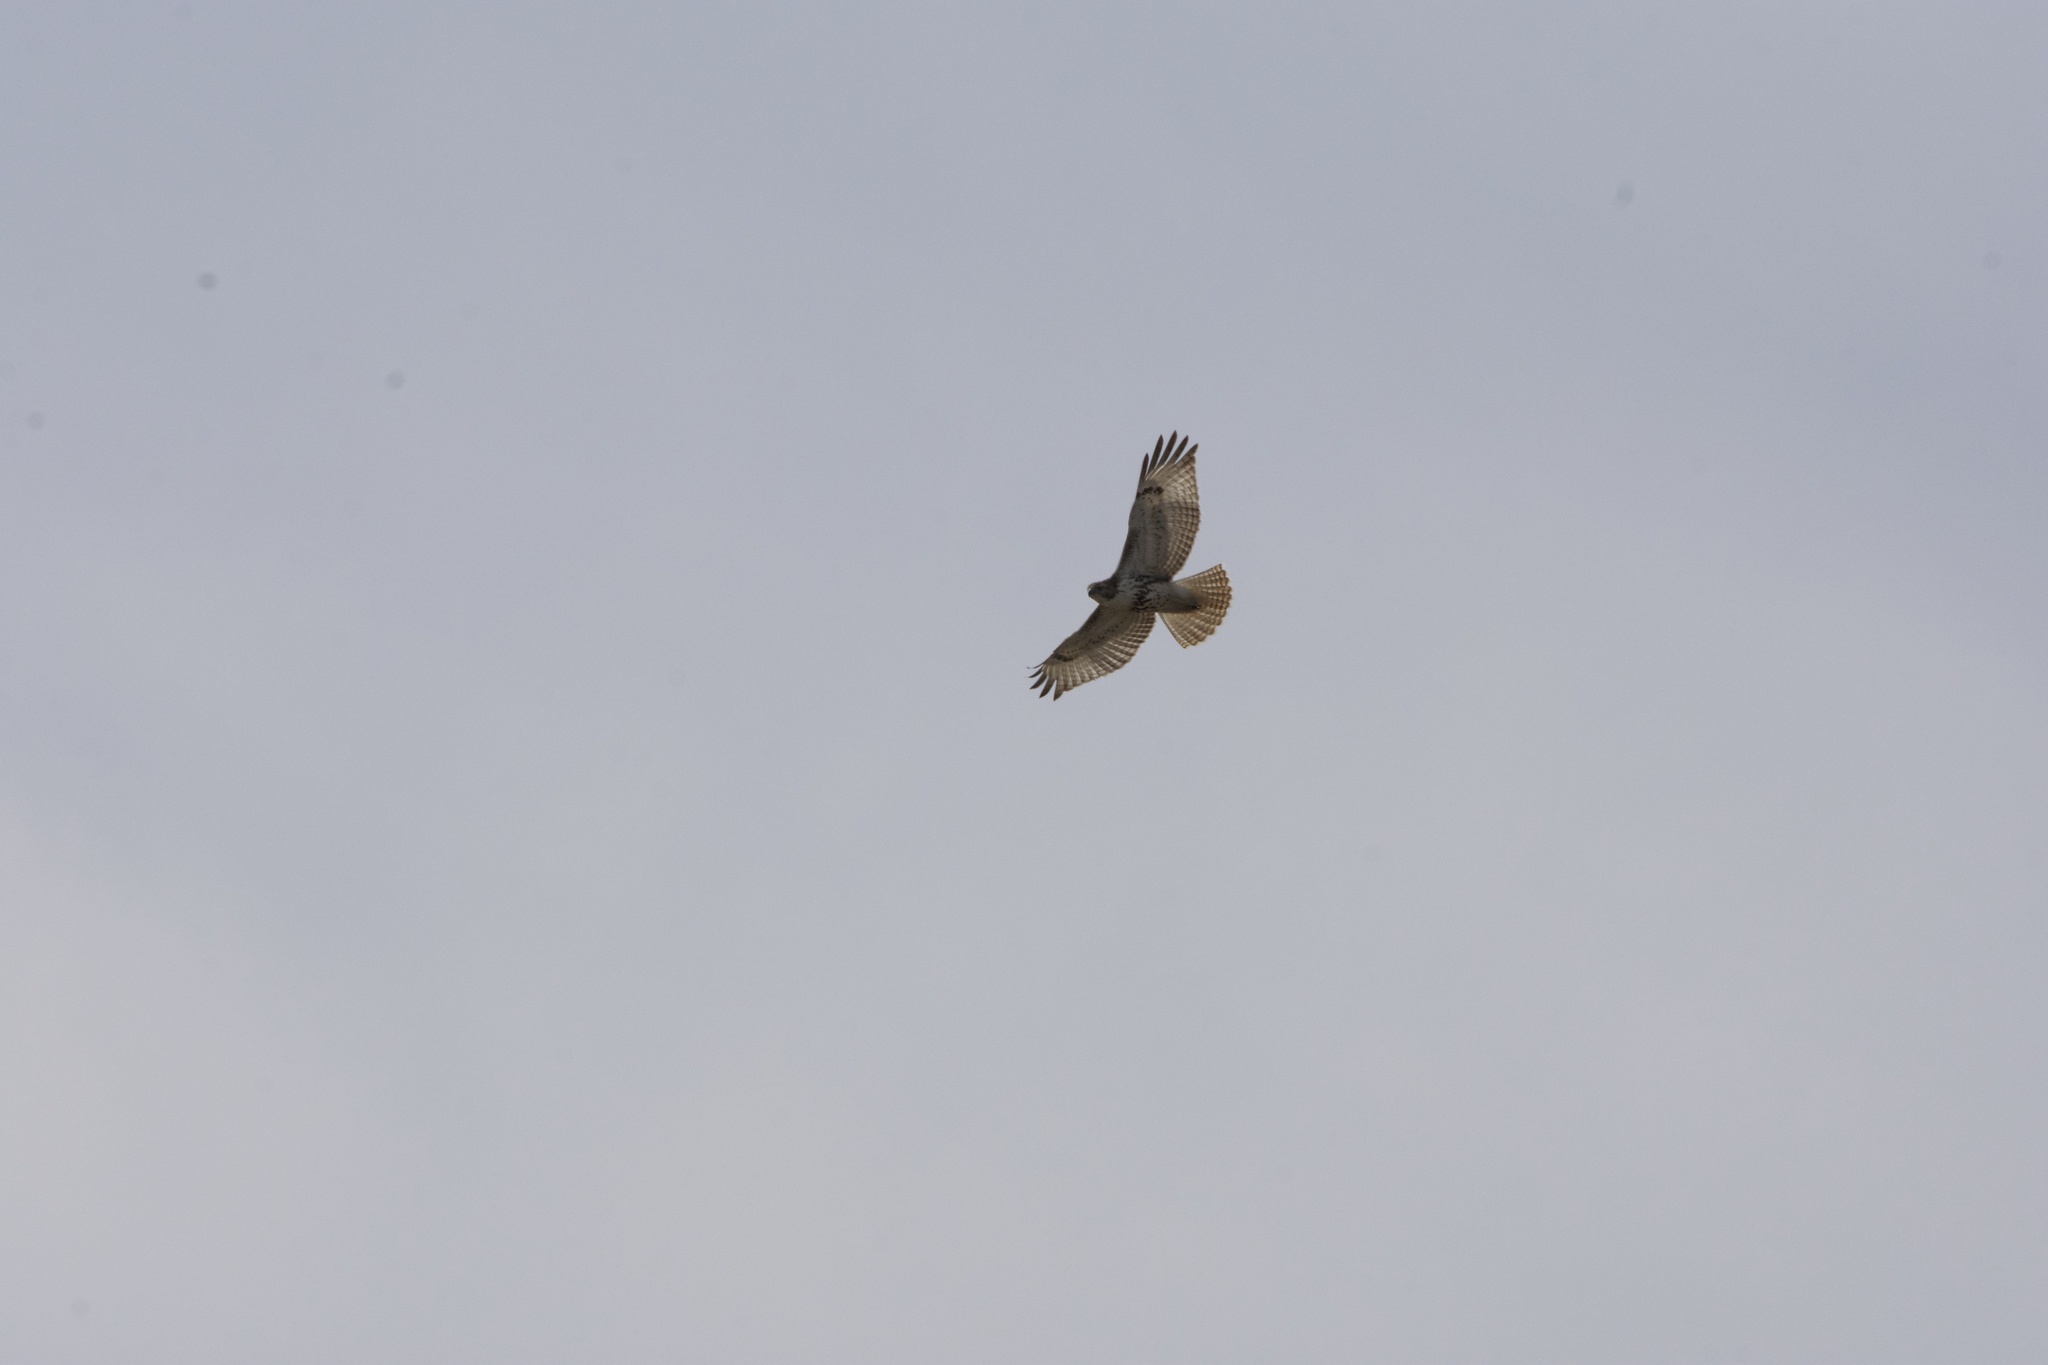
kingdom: Animalia
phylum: Chordata
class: Aves
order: Accipitriformes
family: Accipitridae
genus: Buteo
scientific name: Buteo jamaicensis
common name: Red-tailed hawk
